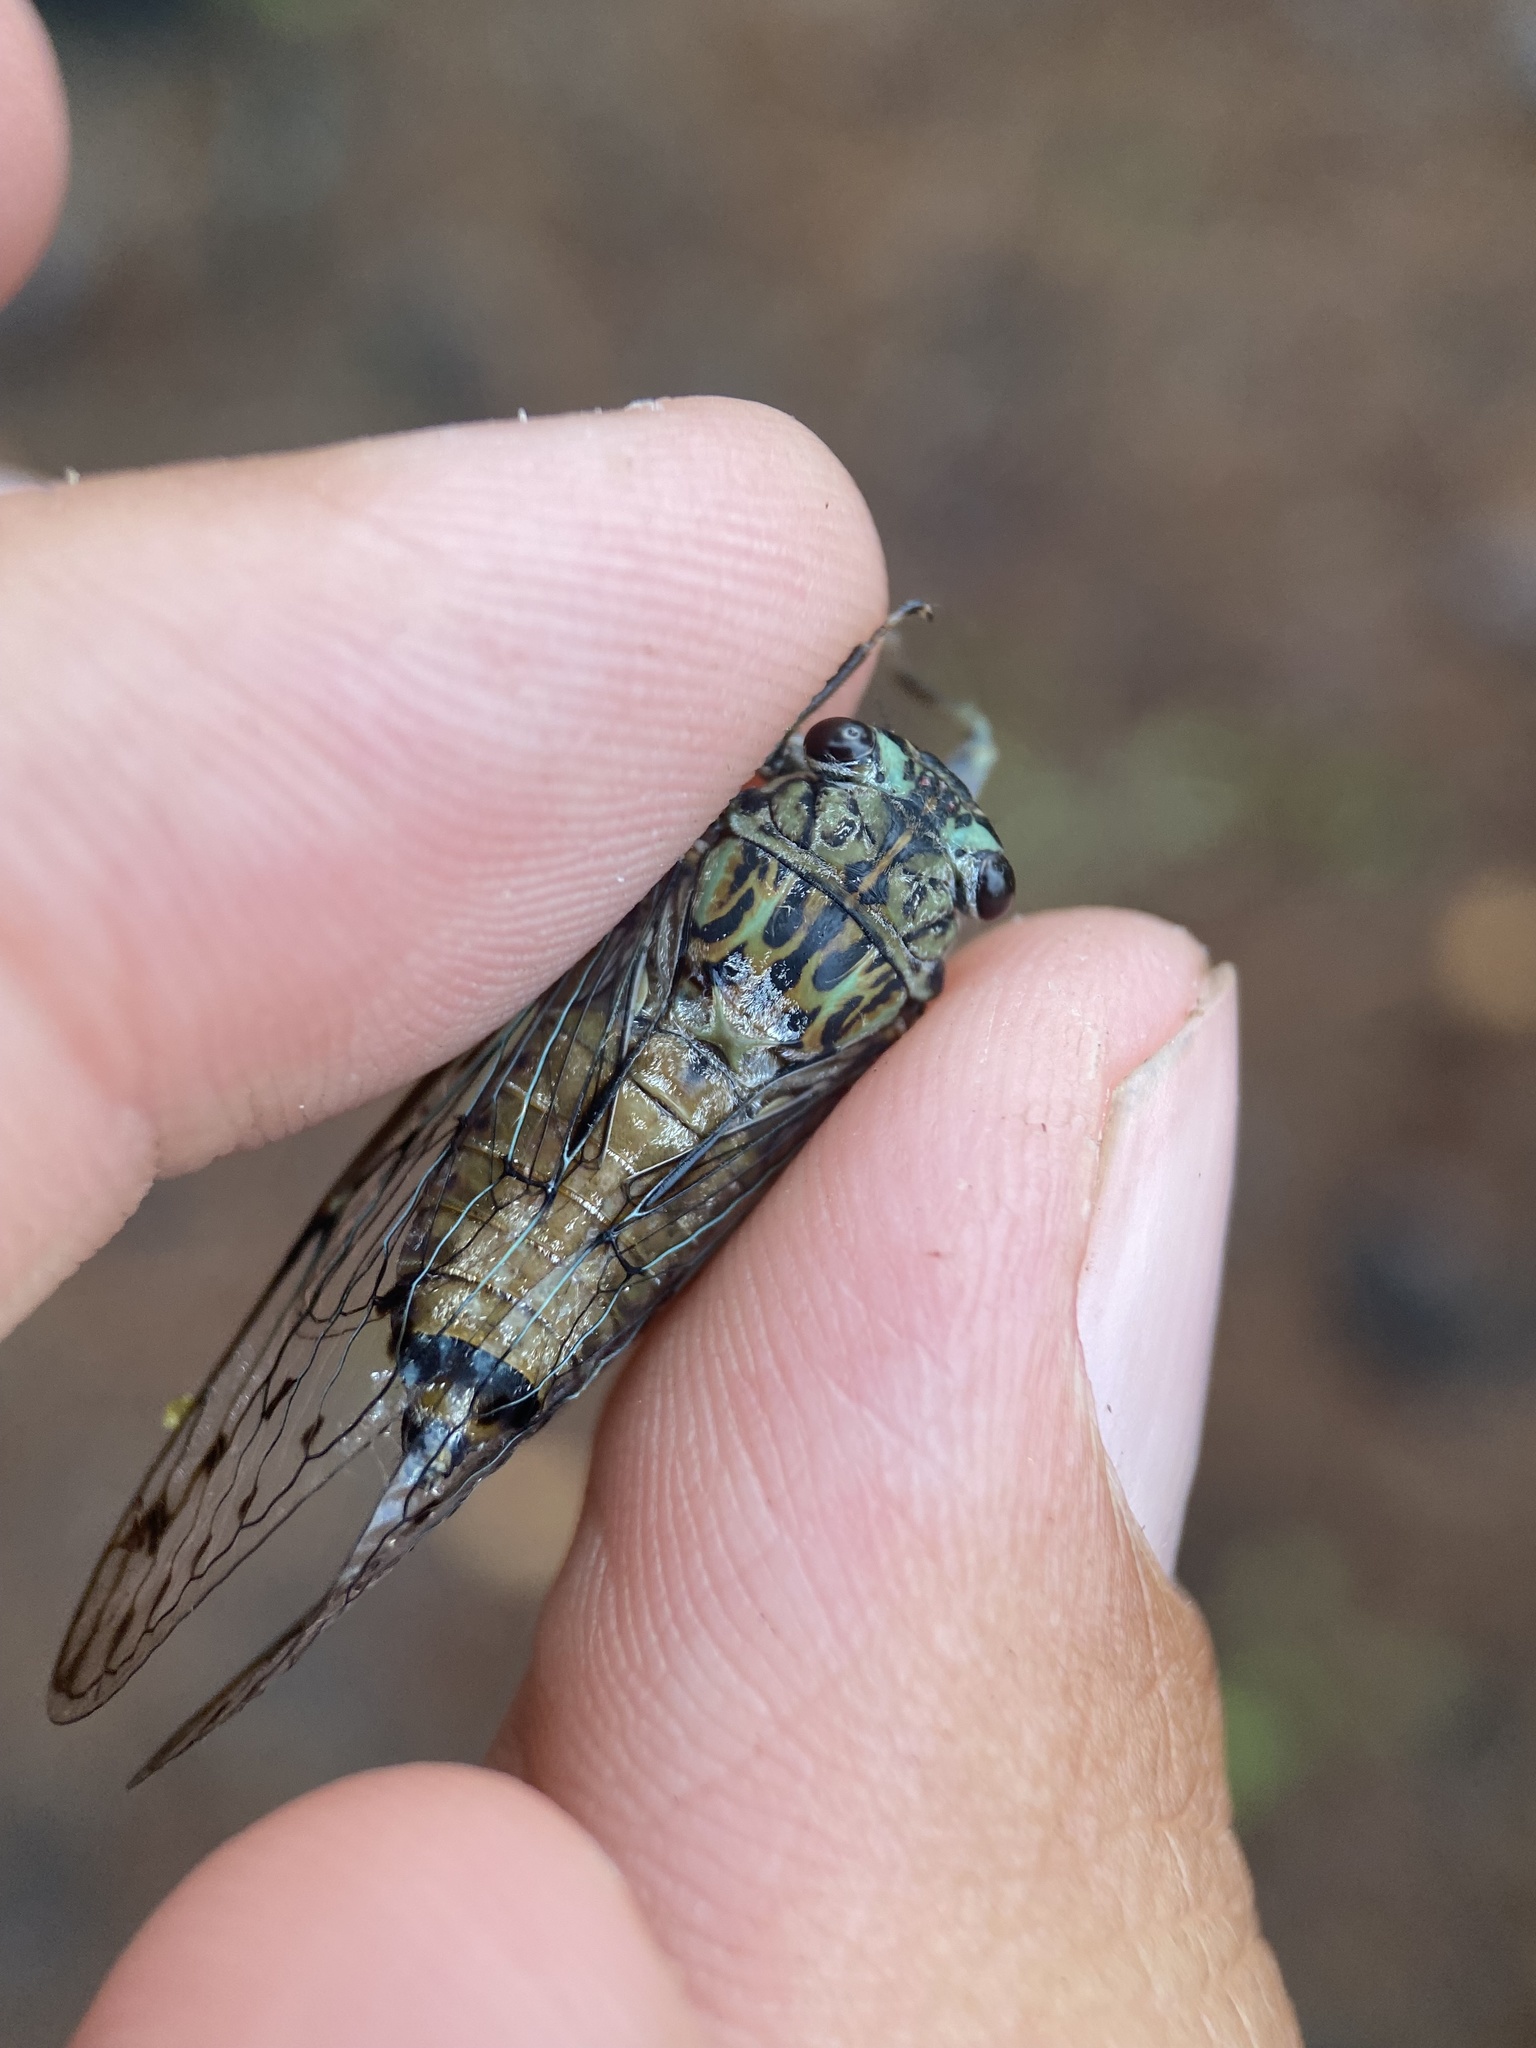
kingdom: Animalia
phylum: Arthropoda
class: Insecta
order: Hemiptera
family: Cicadidae
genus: Neocicada
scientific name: Neocicada hieroglyphica
